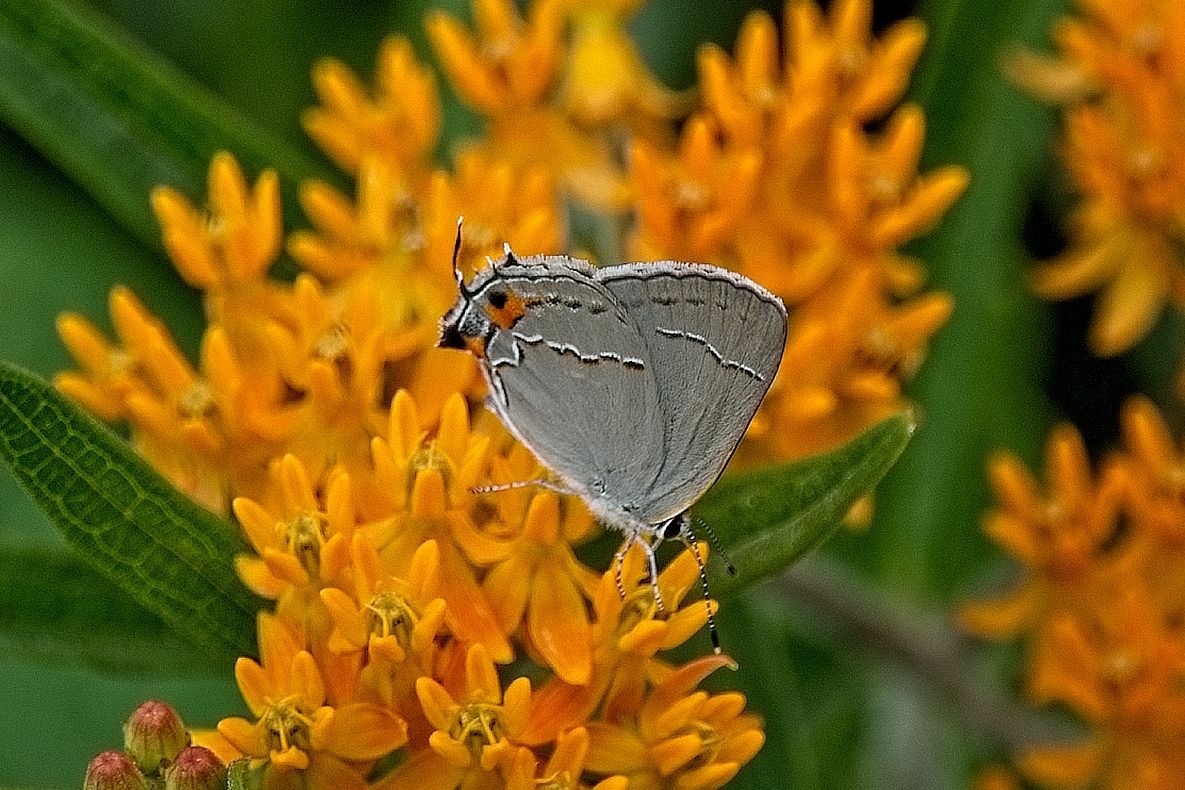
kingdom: Animalia
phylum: Arthropoda
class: Insecta
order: Lepidoptera
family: Lycaenidae
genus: Strymon
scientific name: Strymon melinus
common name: Gray hairstreak
